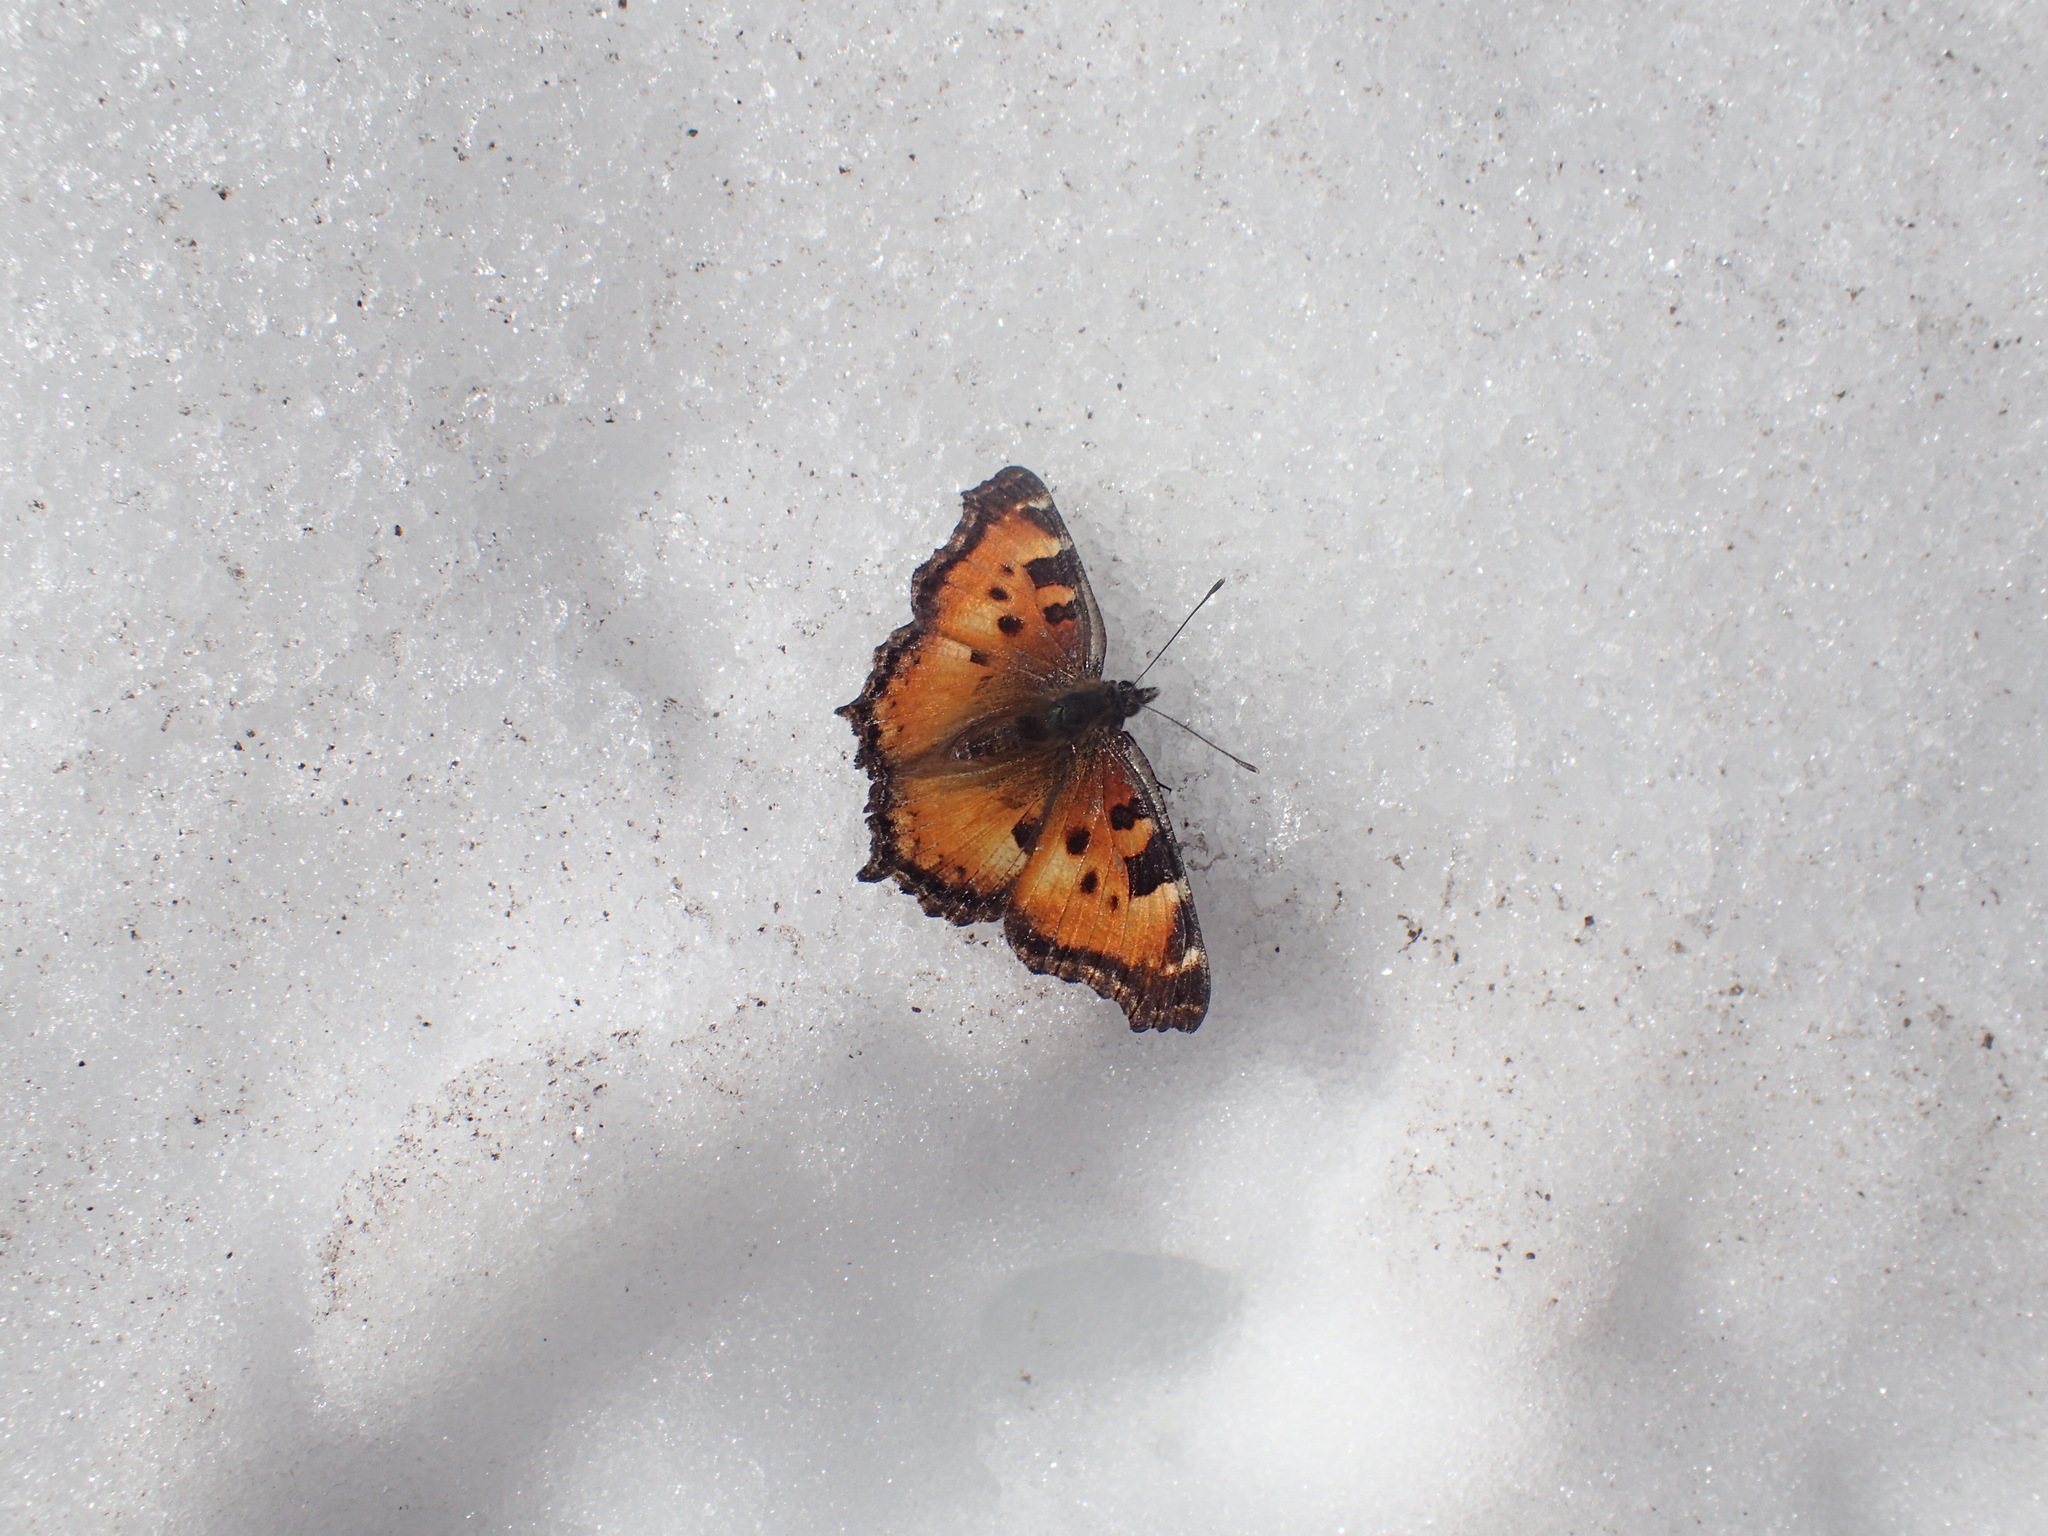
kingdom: Animalia
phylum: Arthropoda
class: Insecta
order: Lepidoptera
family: Nymphalidae
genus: Nymphalis
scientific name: Nymphalis californica
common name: California tortoiseshell
